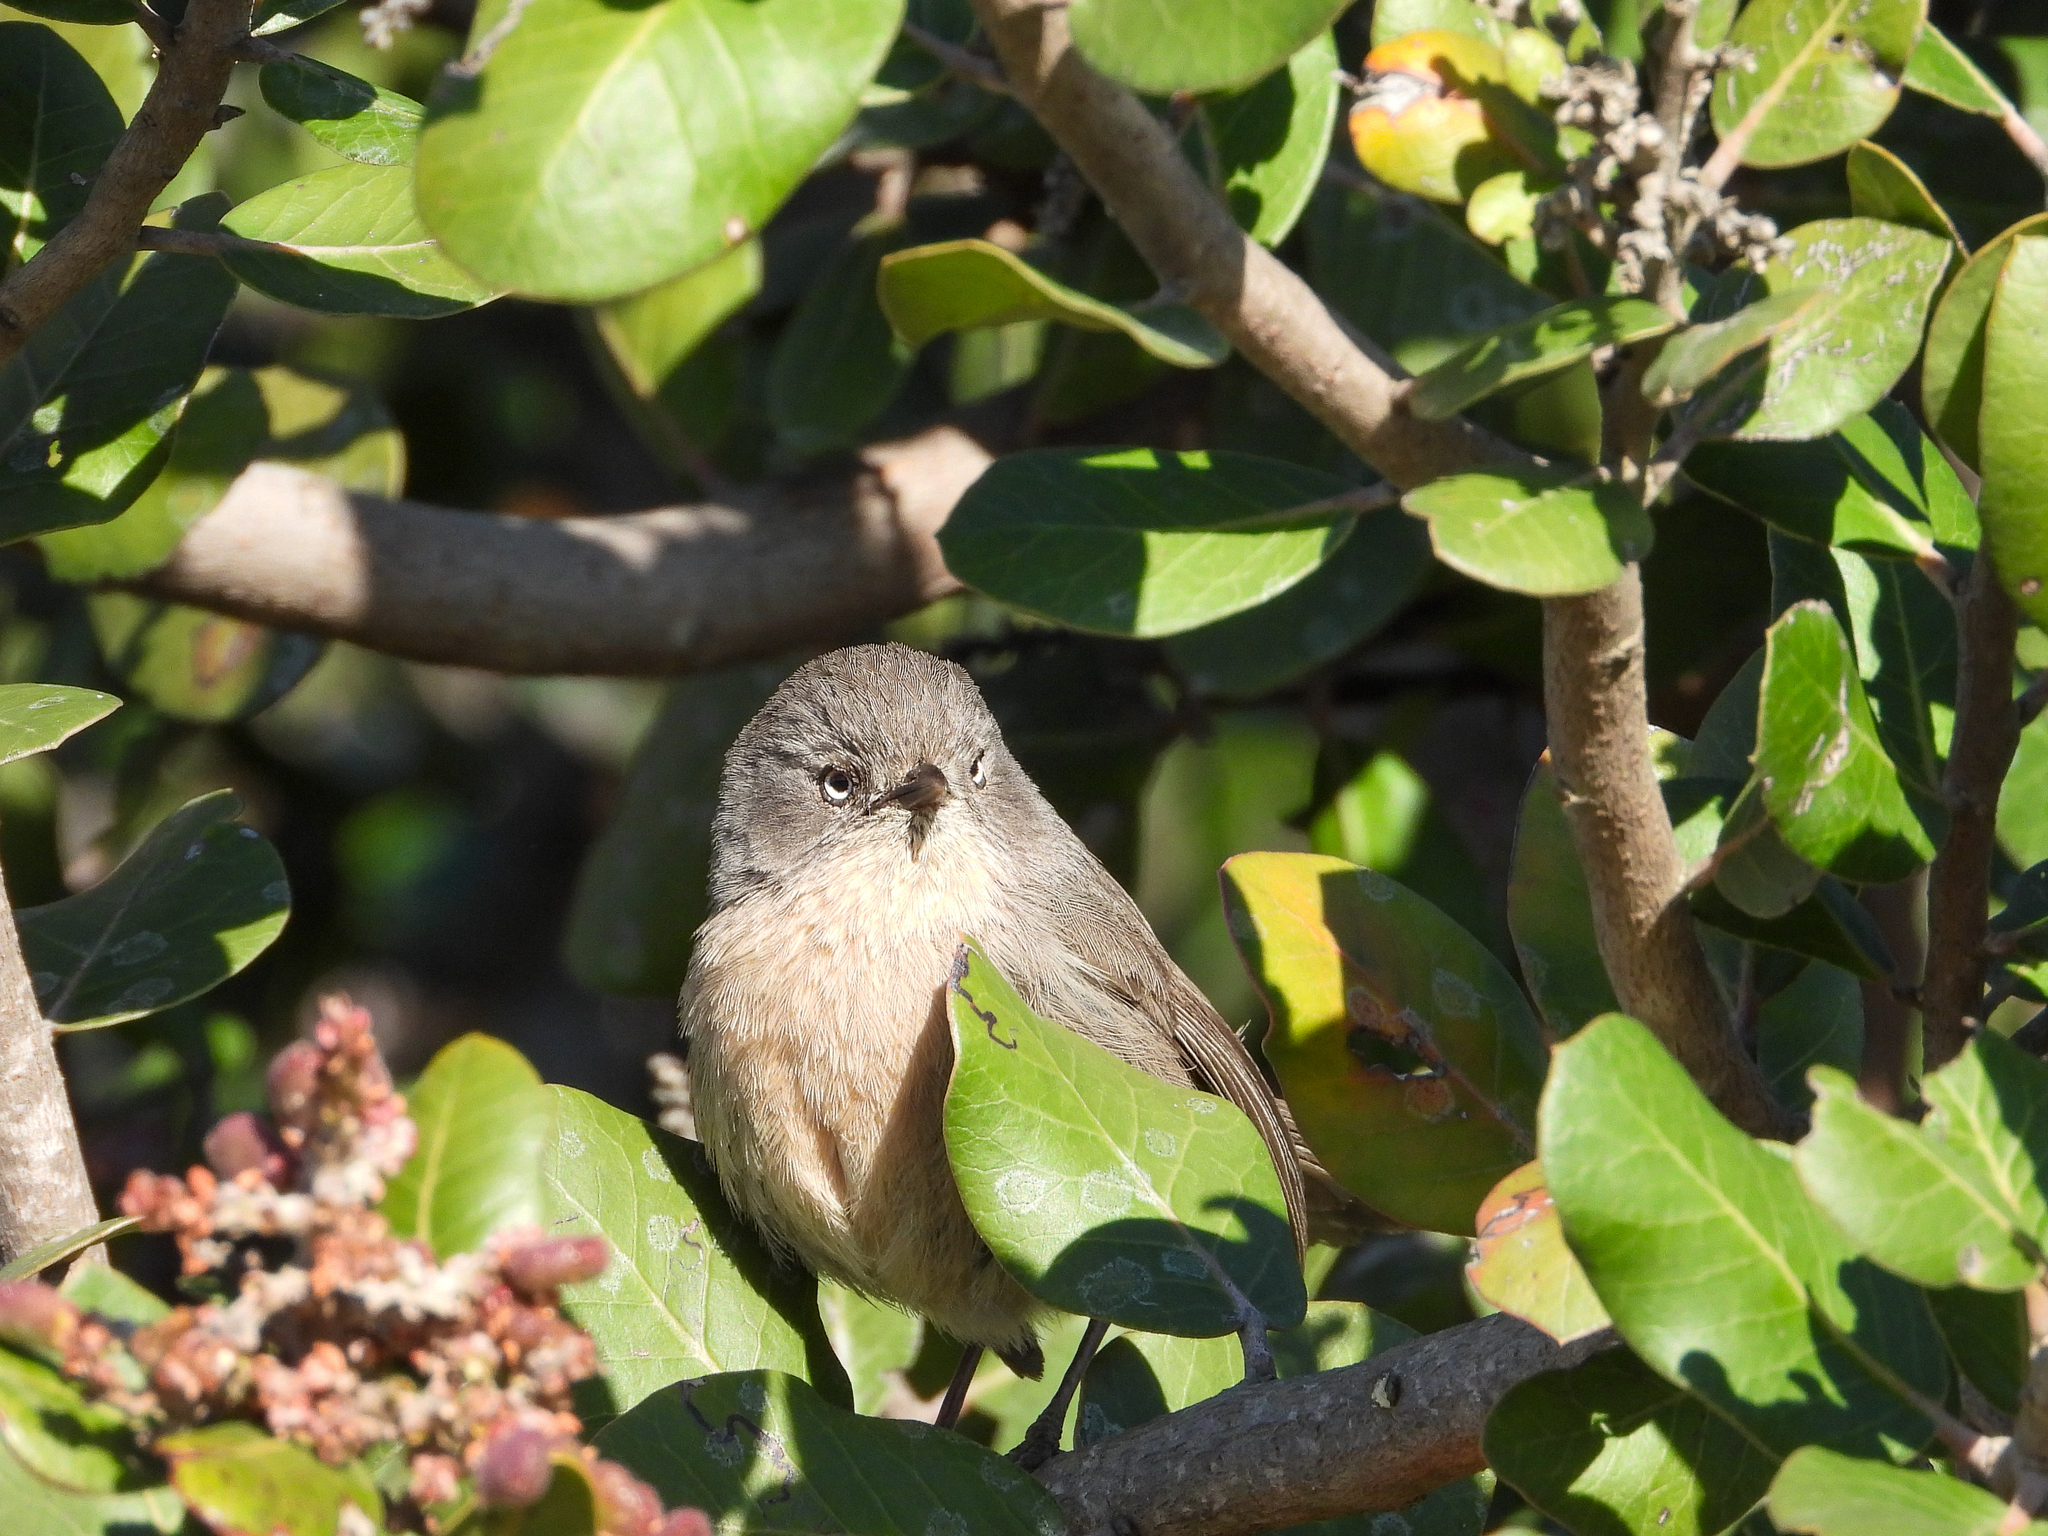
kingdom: Animalia
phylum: Chordata
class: Aves
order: Passeriformes
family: Sylviidae
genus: Chamaea
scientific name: Chamaea fasciata
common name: Wrentit
